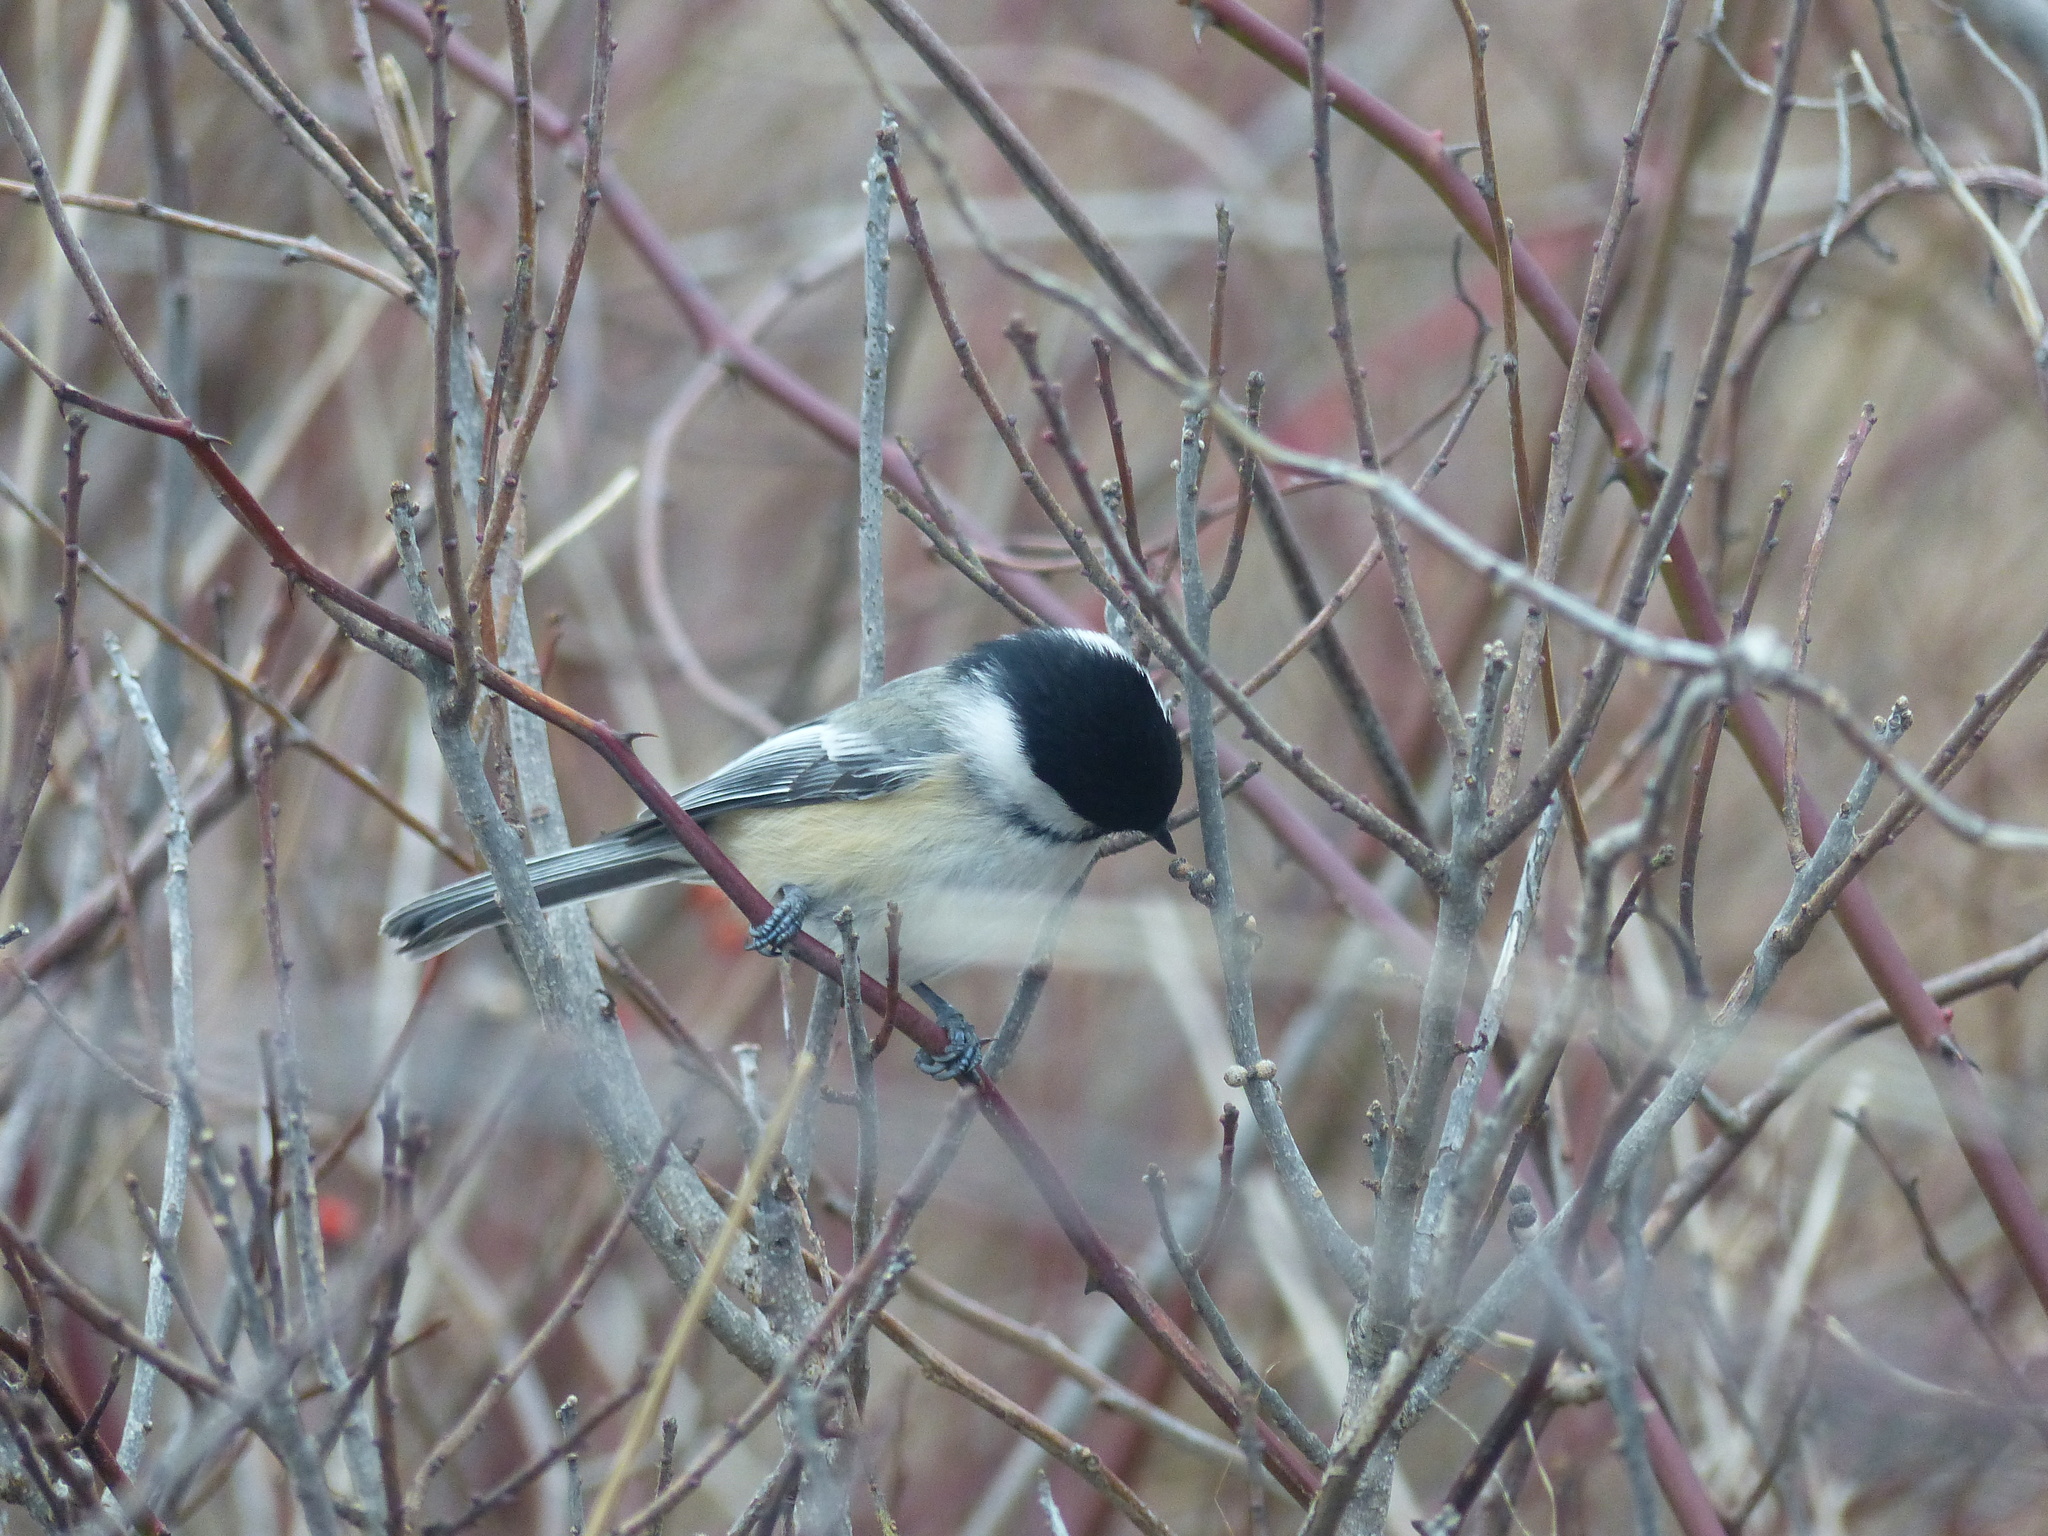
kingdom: Animalia
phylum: Chordata
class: Aves
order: Passeriformes
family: Paridae
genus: Poecile
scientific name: Poecile atricapillus
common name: Black-capped chickadee
